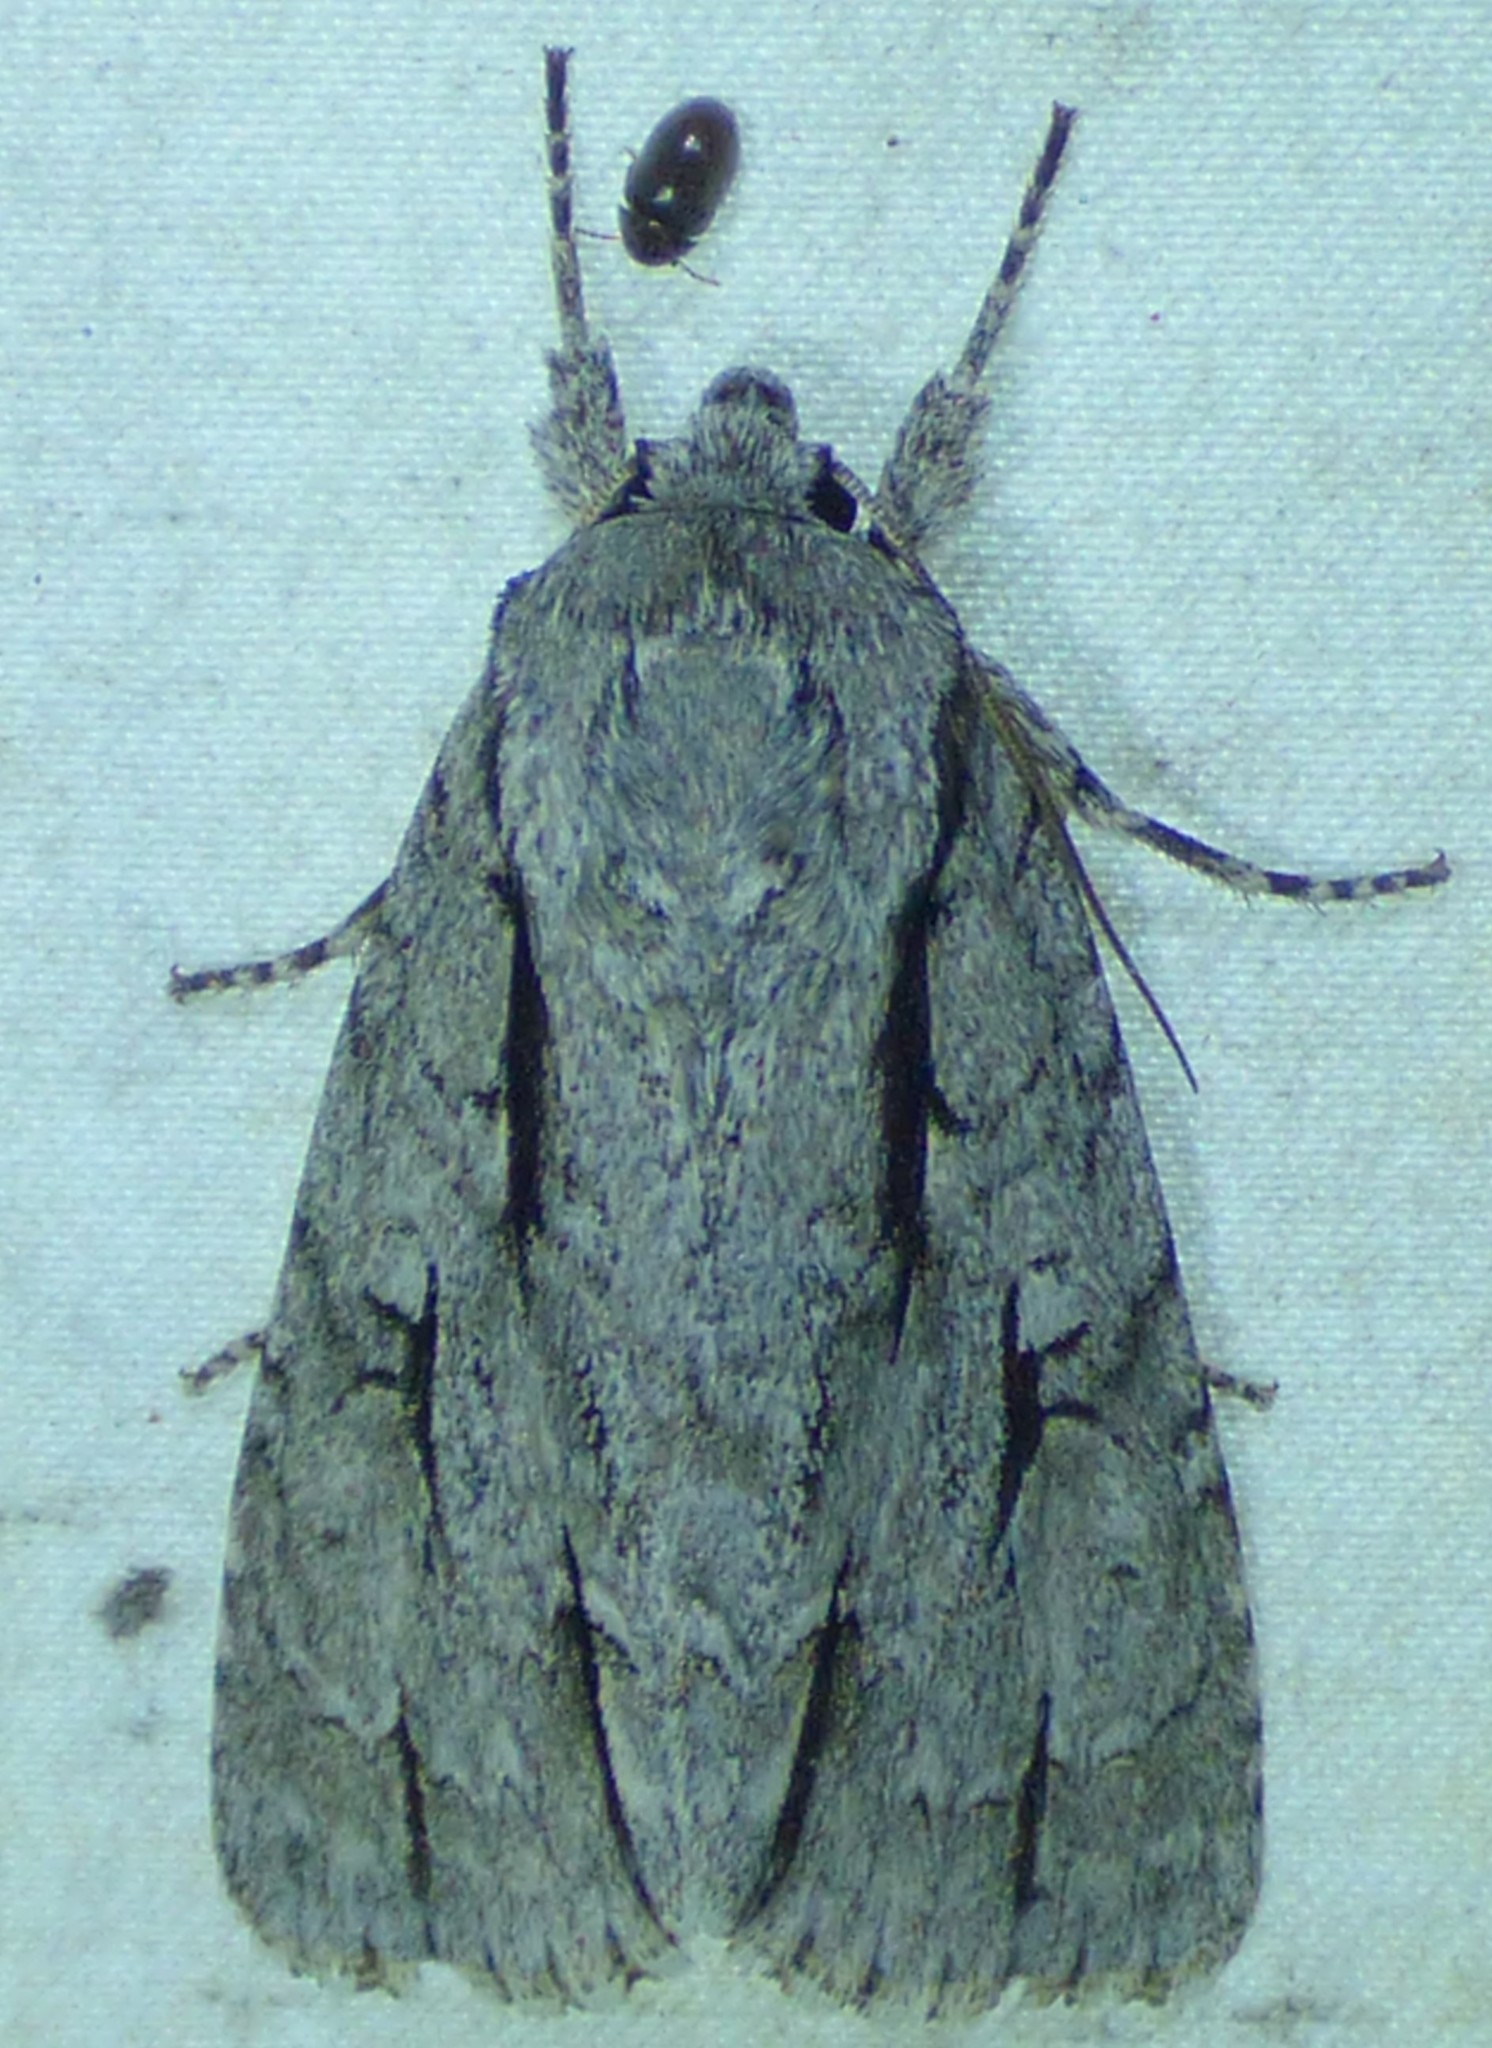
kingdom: Animalia
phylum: Arthropoda
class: Insecta
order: Lepidoptera
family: Noctuidae
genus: Acronicta
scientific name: Acronicta lobeliae
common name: Greater oak dagger
